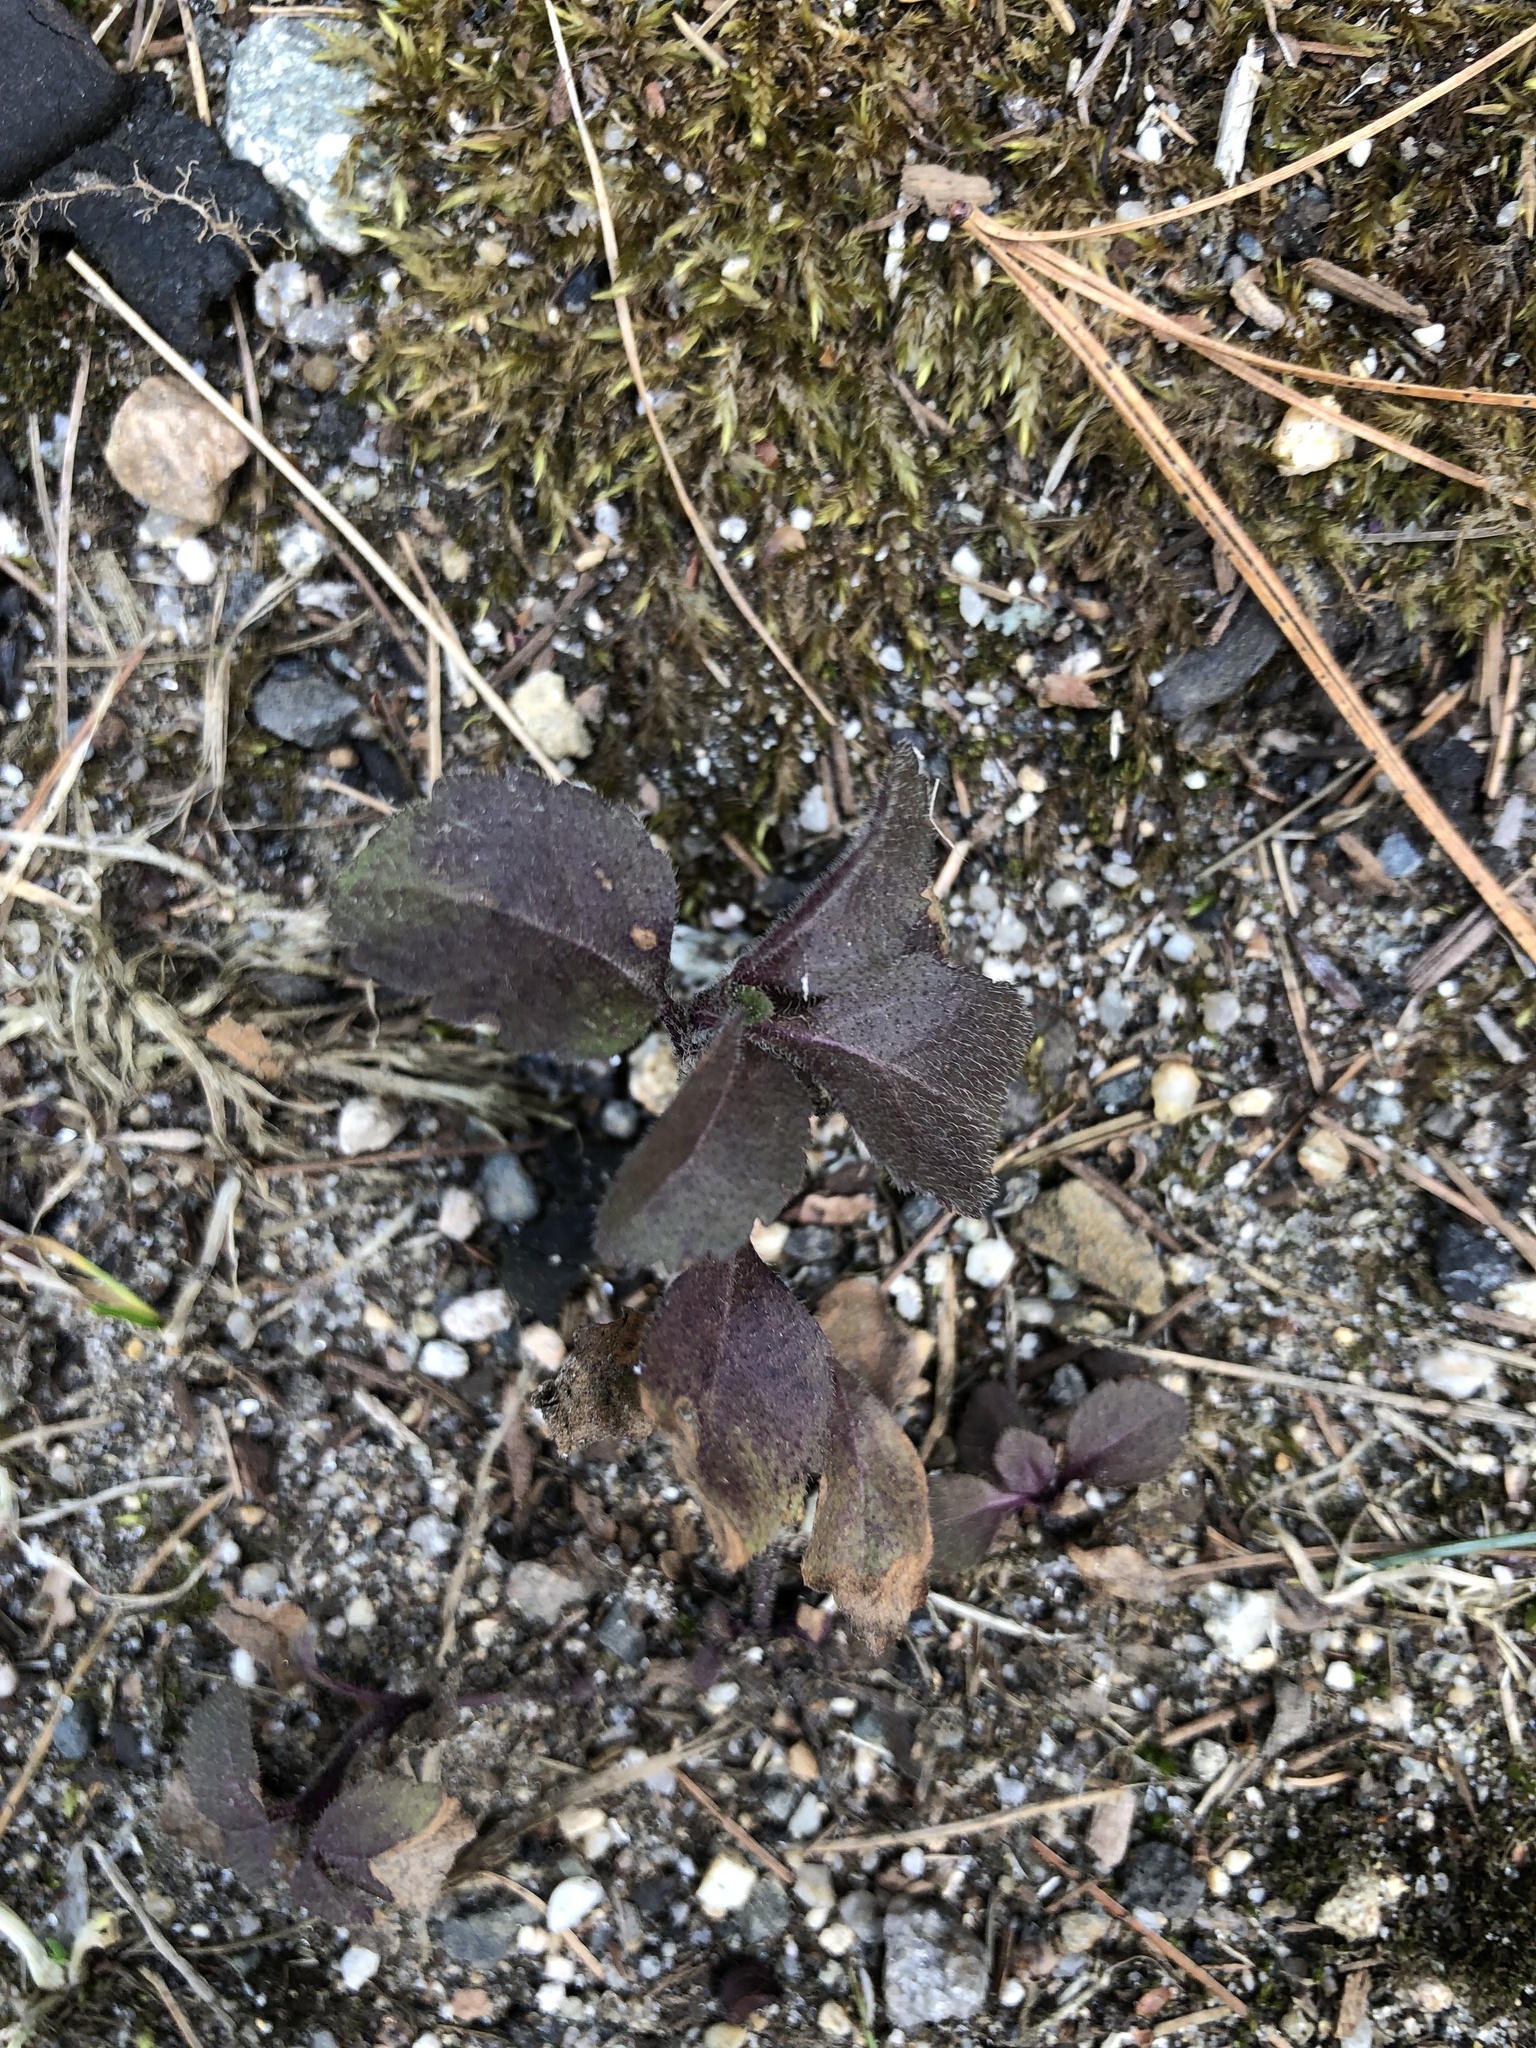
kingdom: Plantae
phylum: Tracheophyta
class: Magnoliopsida
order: Lamiales
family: Plantaginaceae
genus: Veronica
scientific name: Veronica officinalis
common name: Common speedwell
